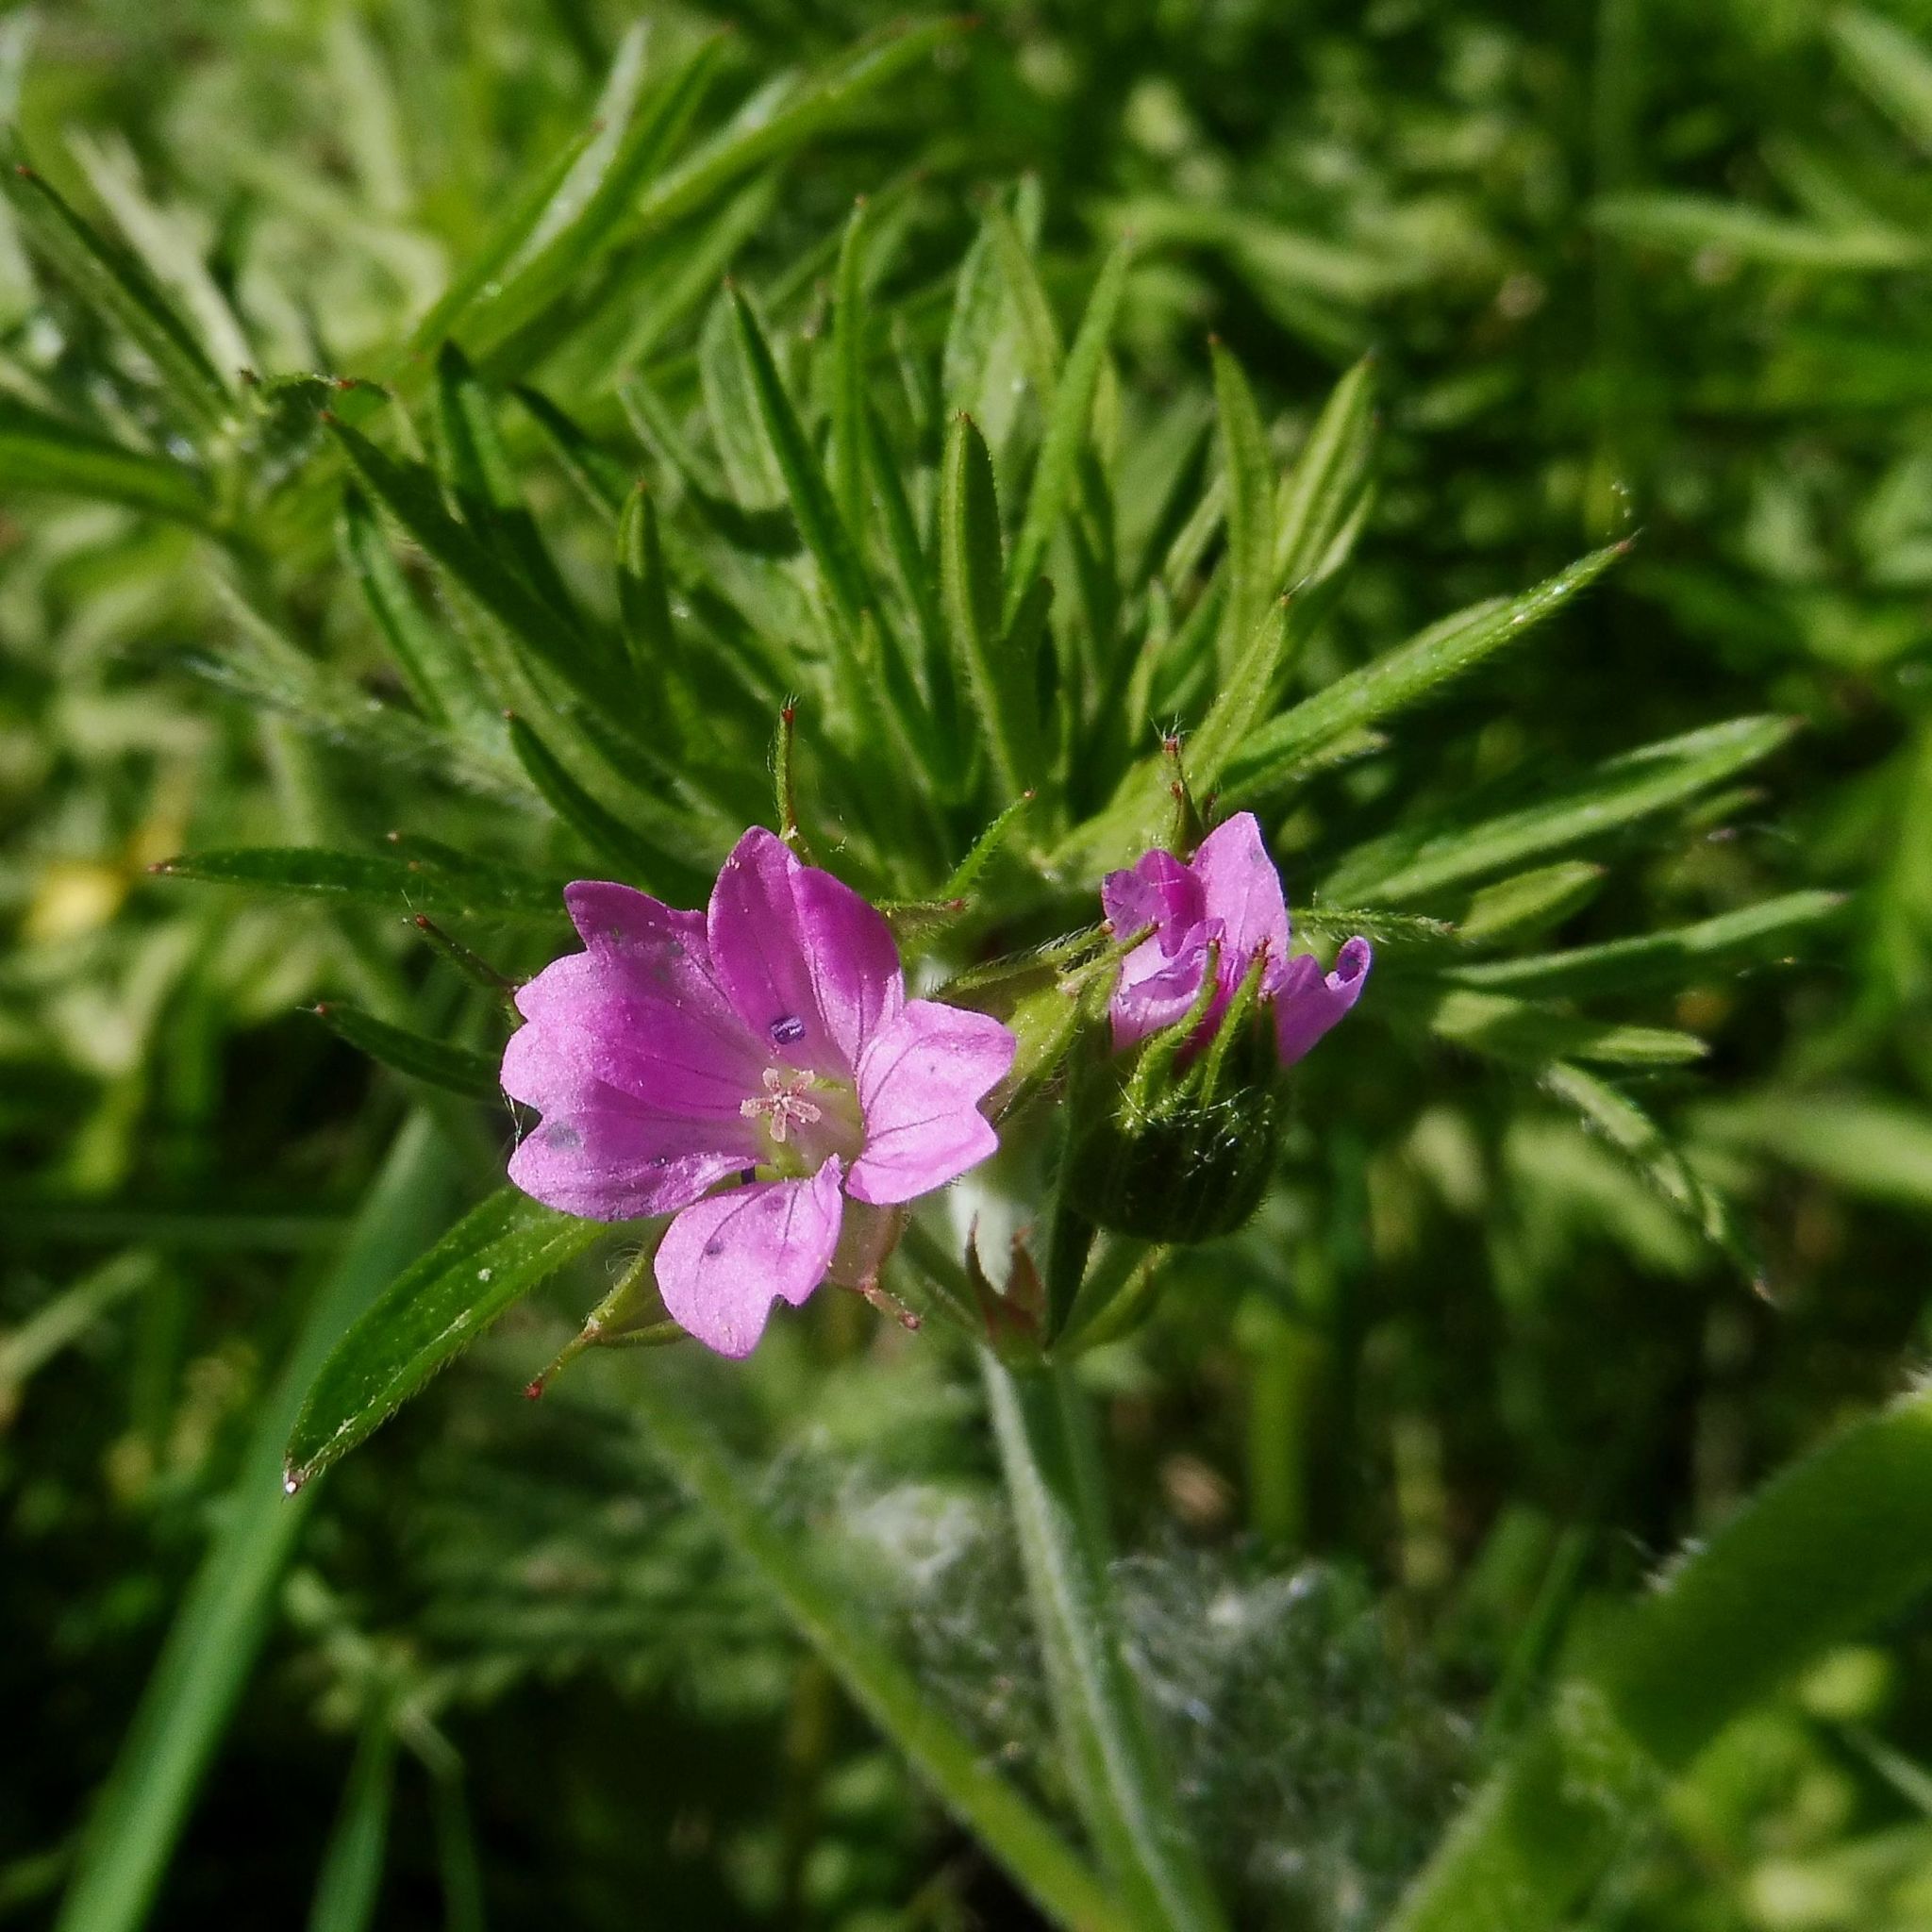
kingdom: Plantae
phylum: Tracheophyta
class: Magnoliopsida
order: Geraniales
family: Geraniaceae
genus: Geranium
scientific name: Geranium dissectum
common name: Cut-leaved crane's-bill
